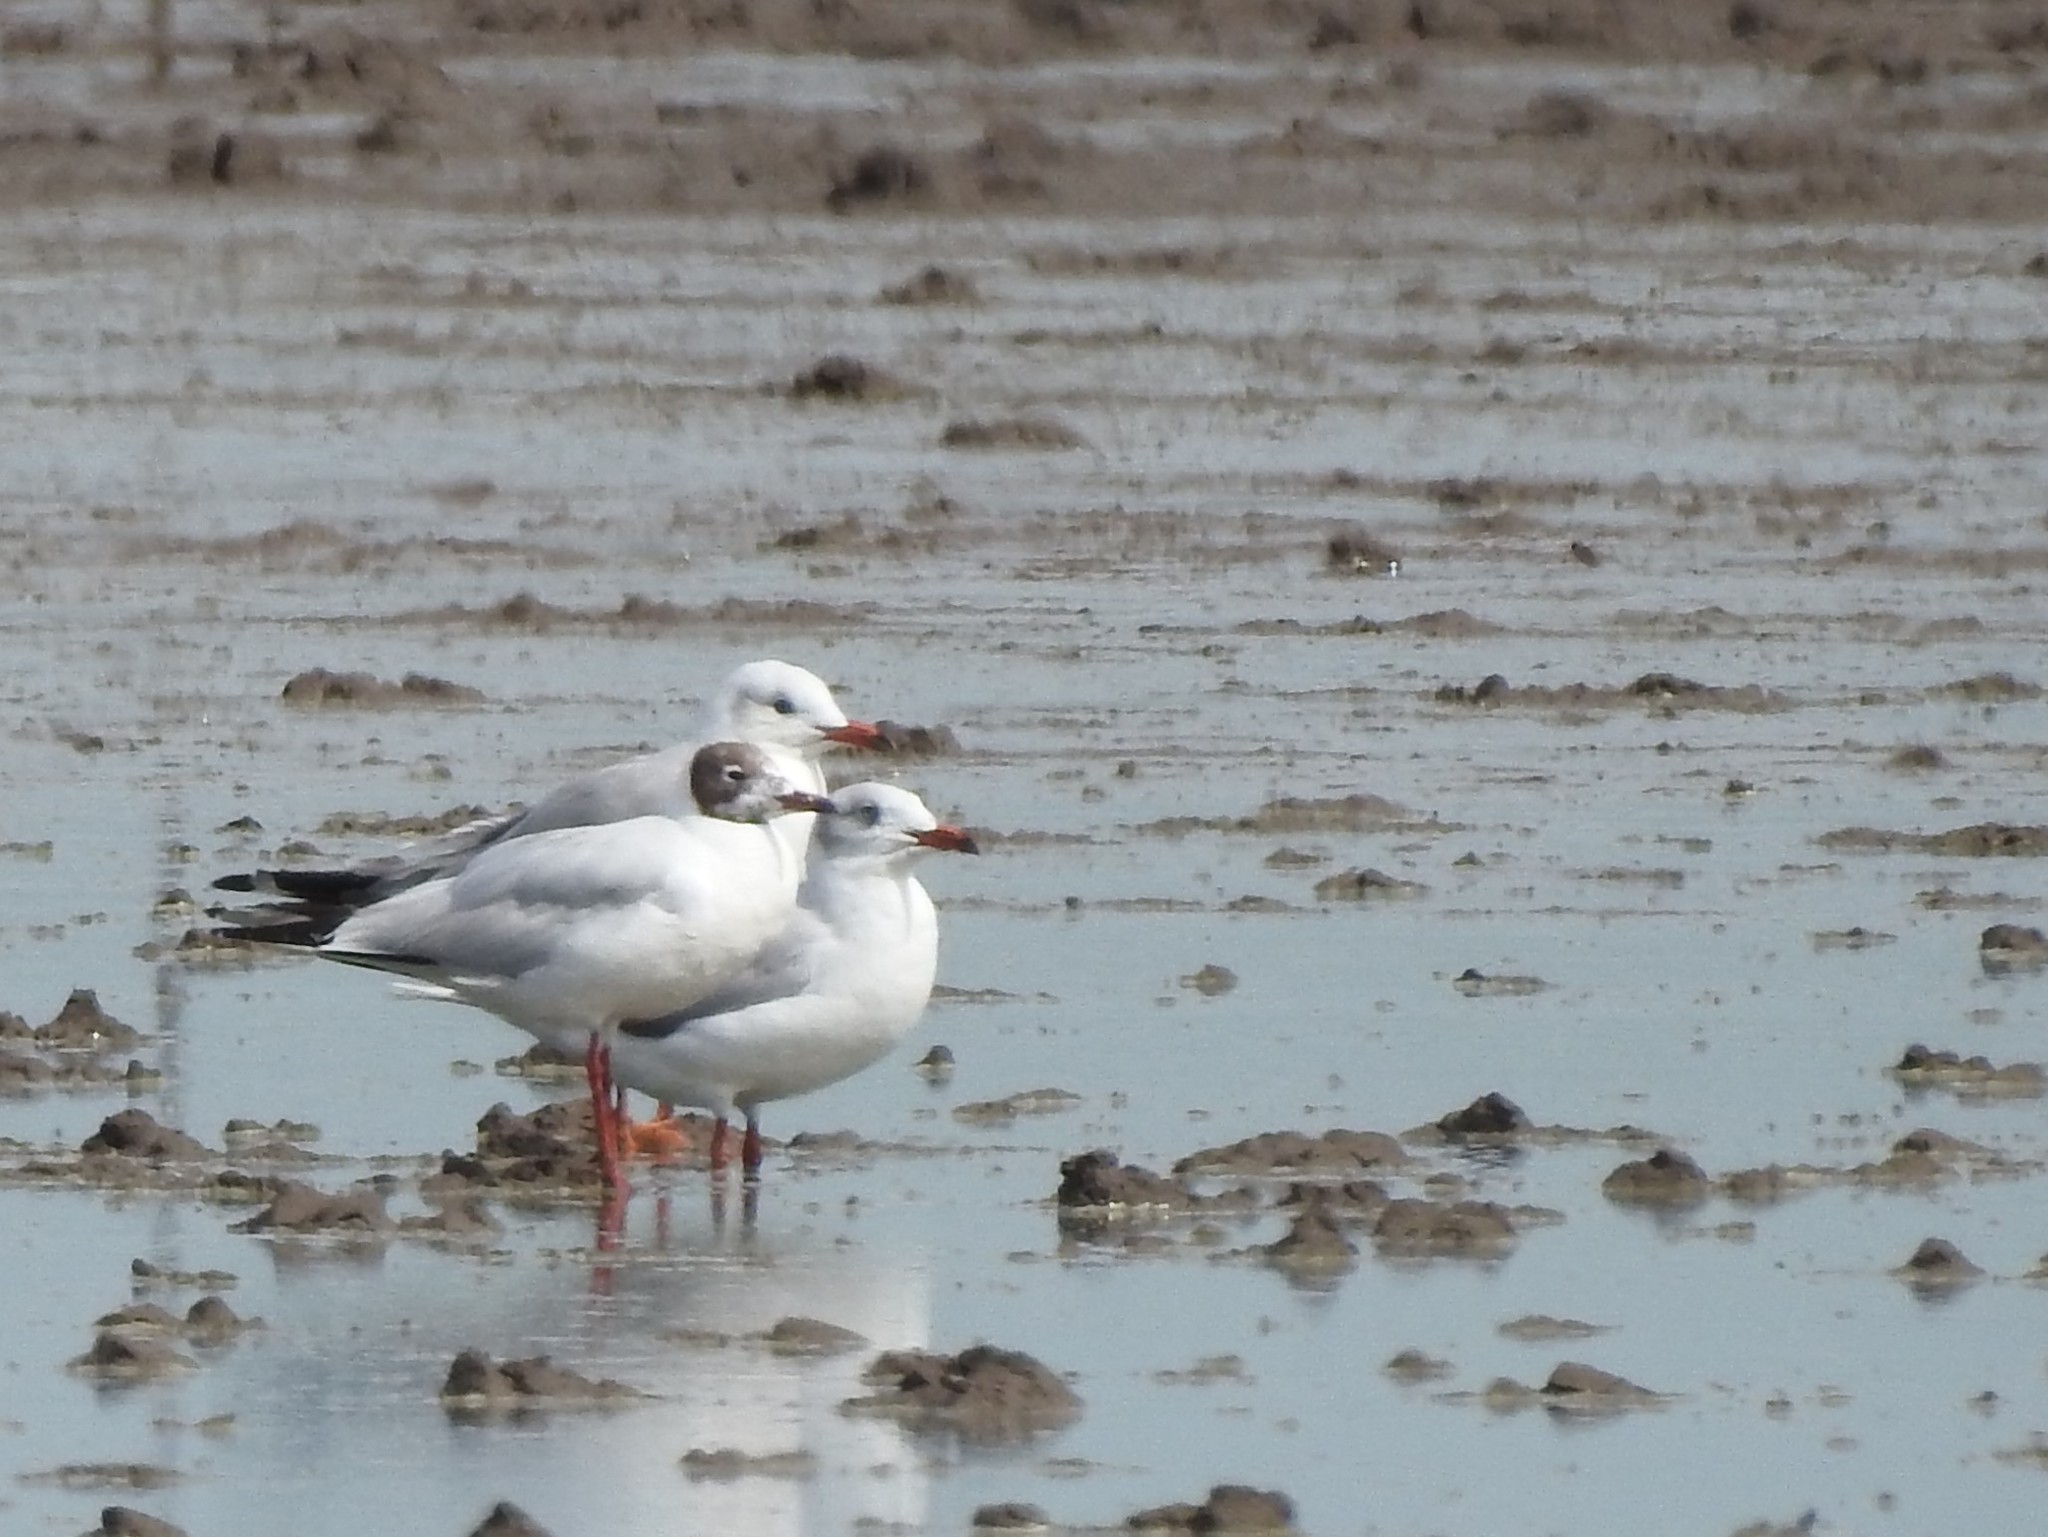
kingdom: Animalia
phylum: Chordata
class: Aves
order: Charadriiformes
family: Laridae
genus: Chroicocephalus
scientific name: Chroicocephalus maculipennis
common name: Brown-hooded gull
